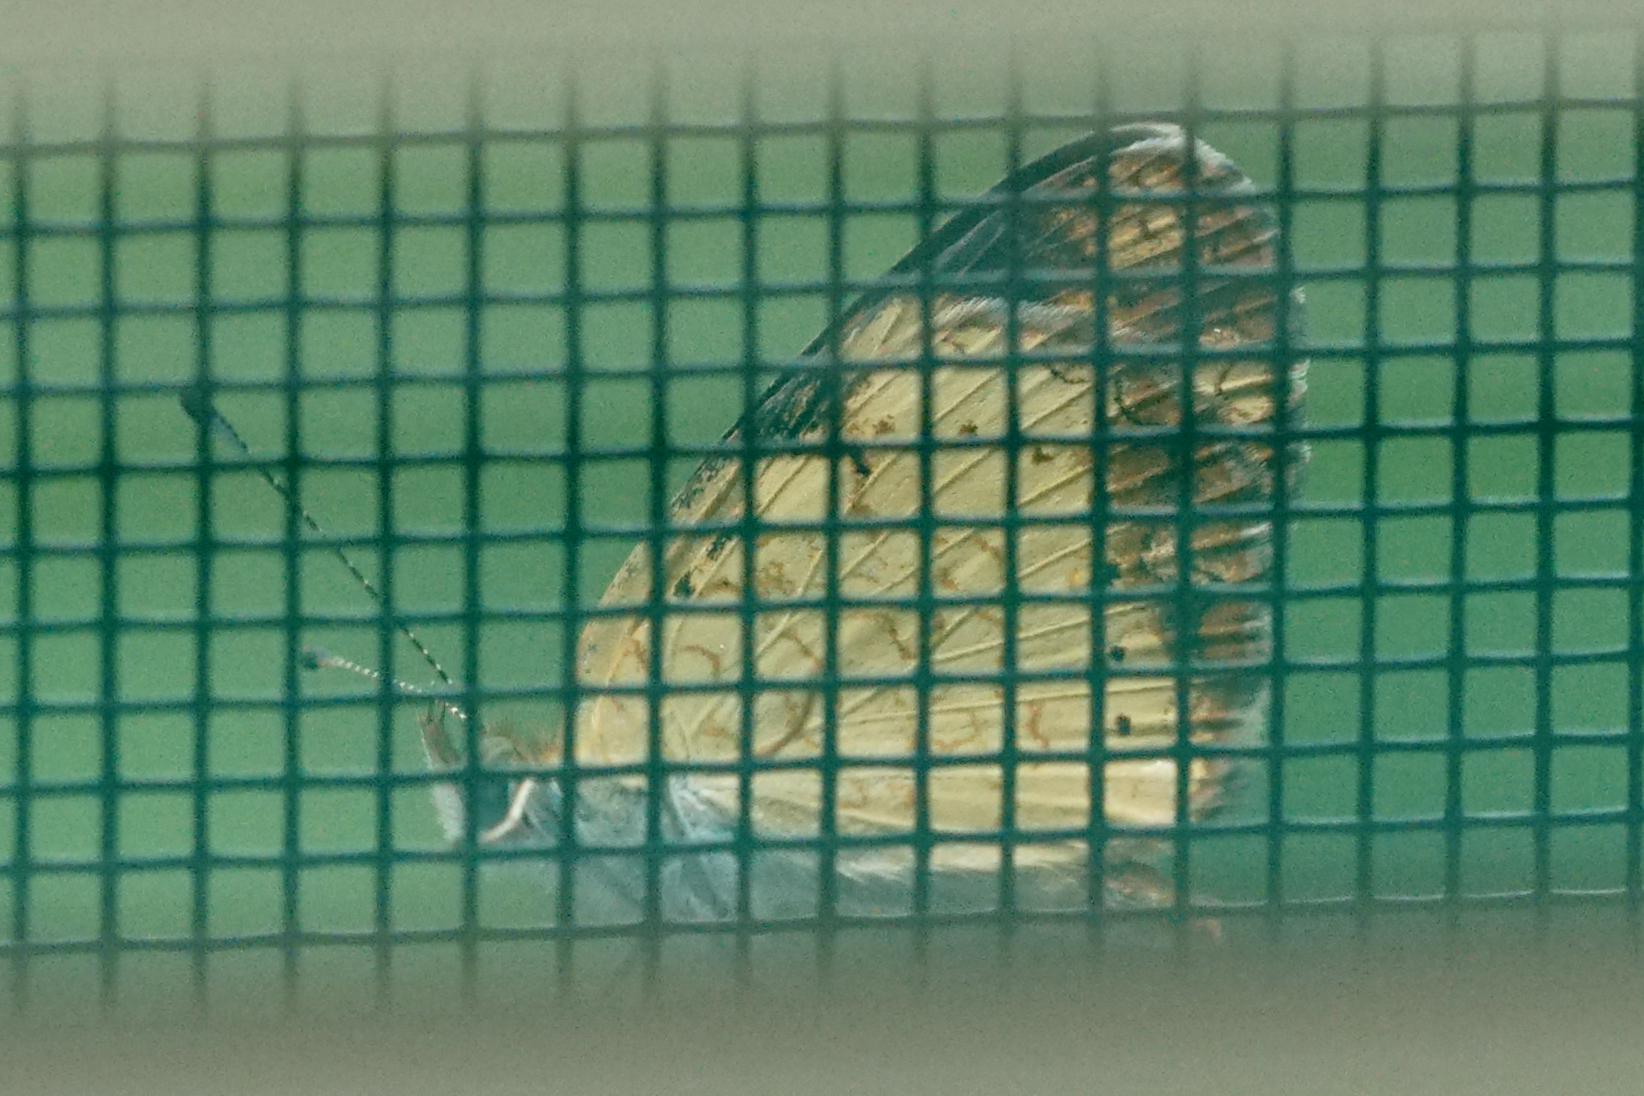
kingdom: Animalia
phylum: Arthropoda
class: Insecta
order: Lepidoptera
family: Nymphalidae
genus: Phyciodes
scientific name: Phyciodes tharos
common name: Pearl crescent
